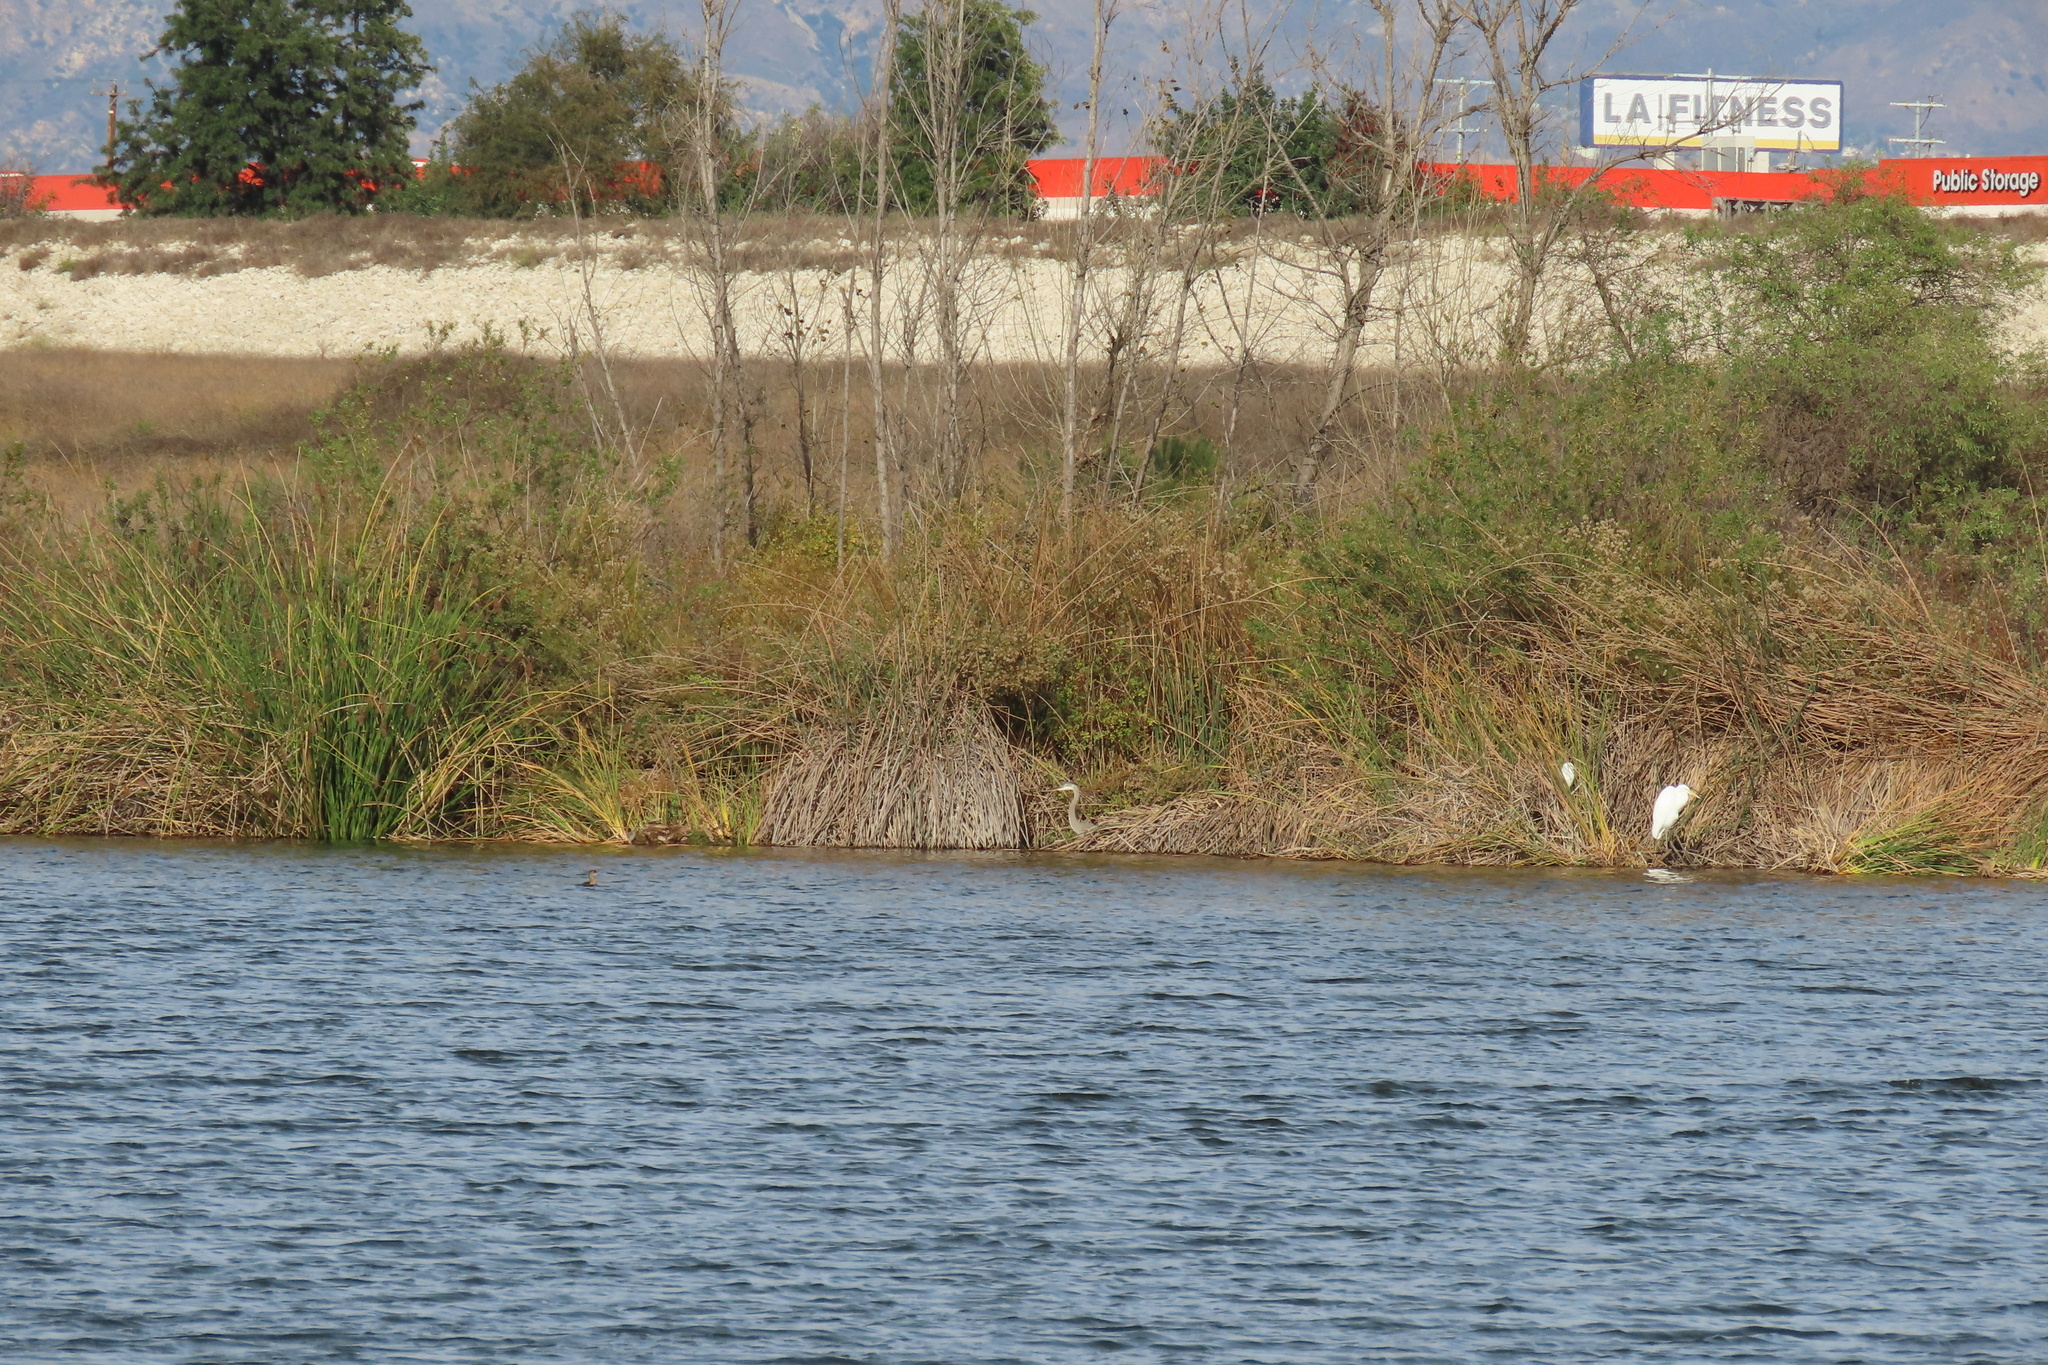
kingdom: Animalia
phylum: Chordata
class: Aves
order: Pelecaniformes
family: Ardeidae
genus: Ardea
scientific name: Ardea herodias
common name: Great blue heron
